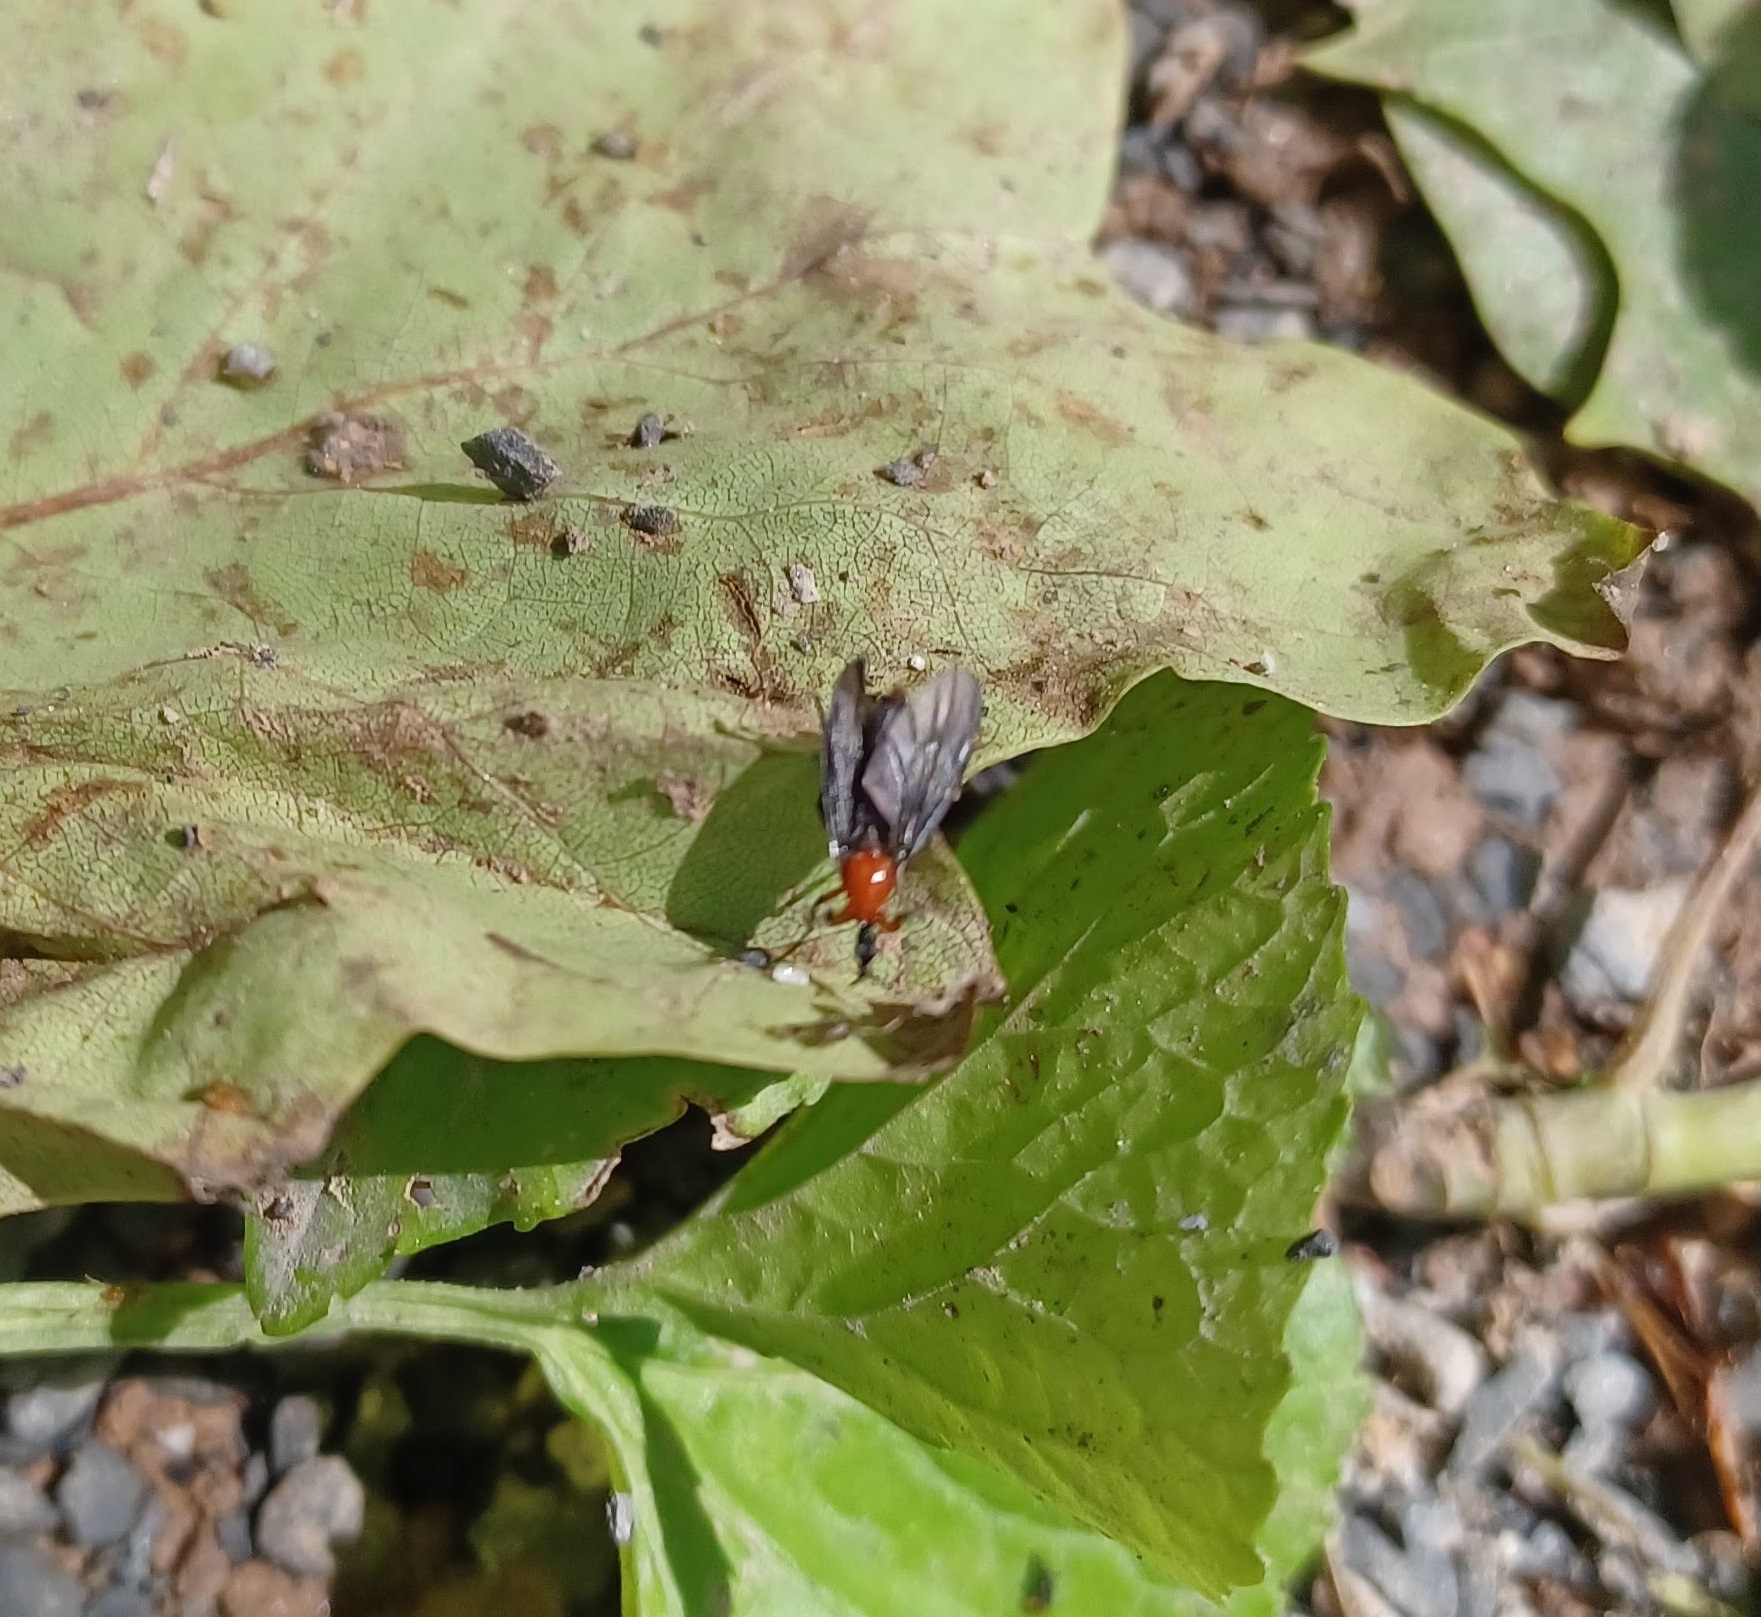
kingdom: Animalia
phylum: Arthropoda
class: Insecta
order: Diptera
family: Bibionidae
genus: Dilophus
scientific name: Dilophus spinipes
